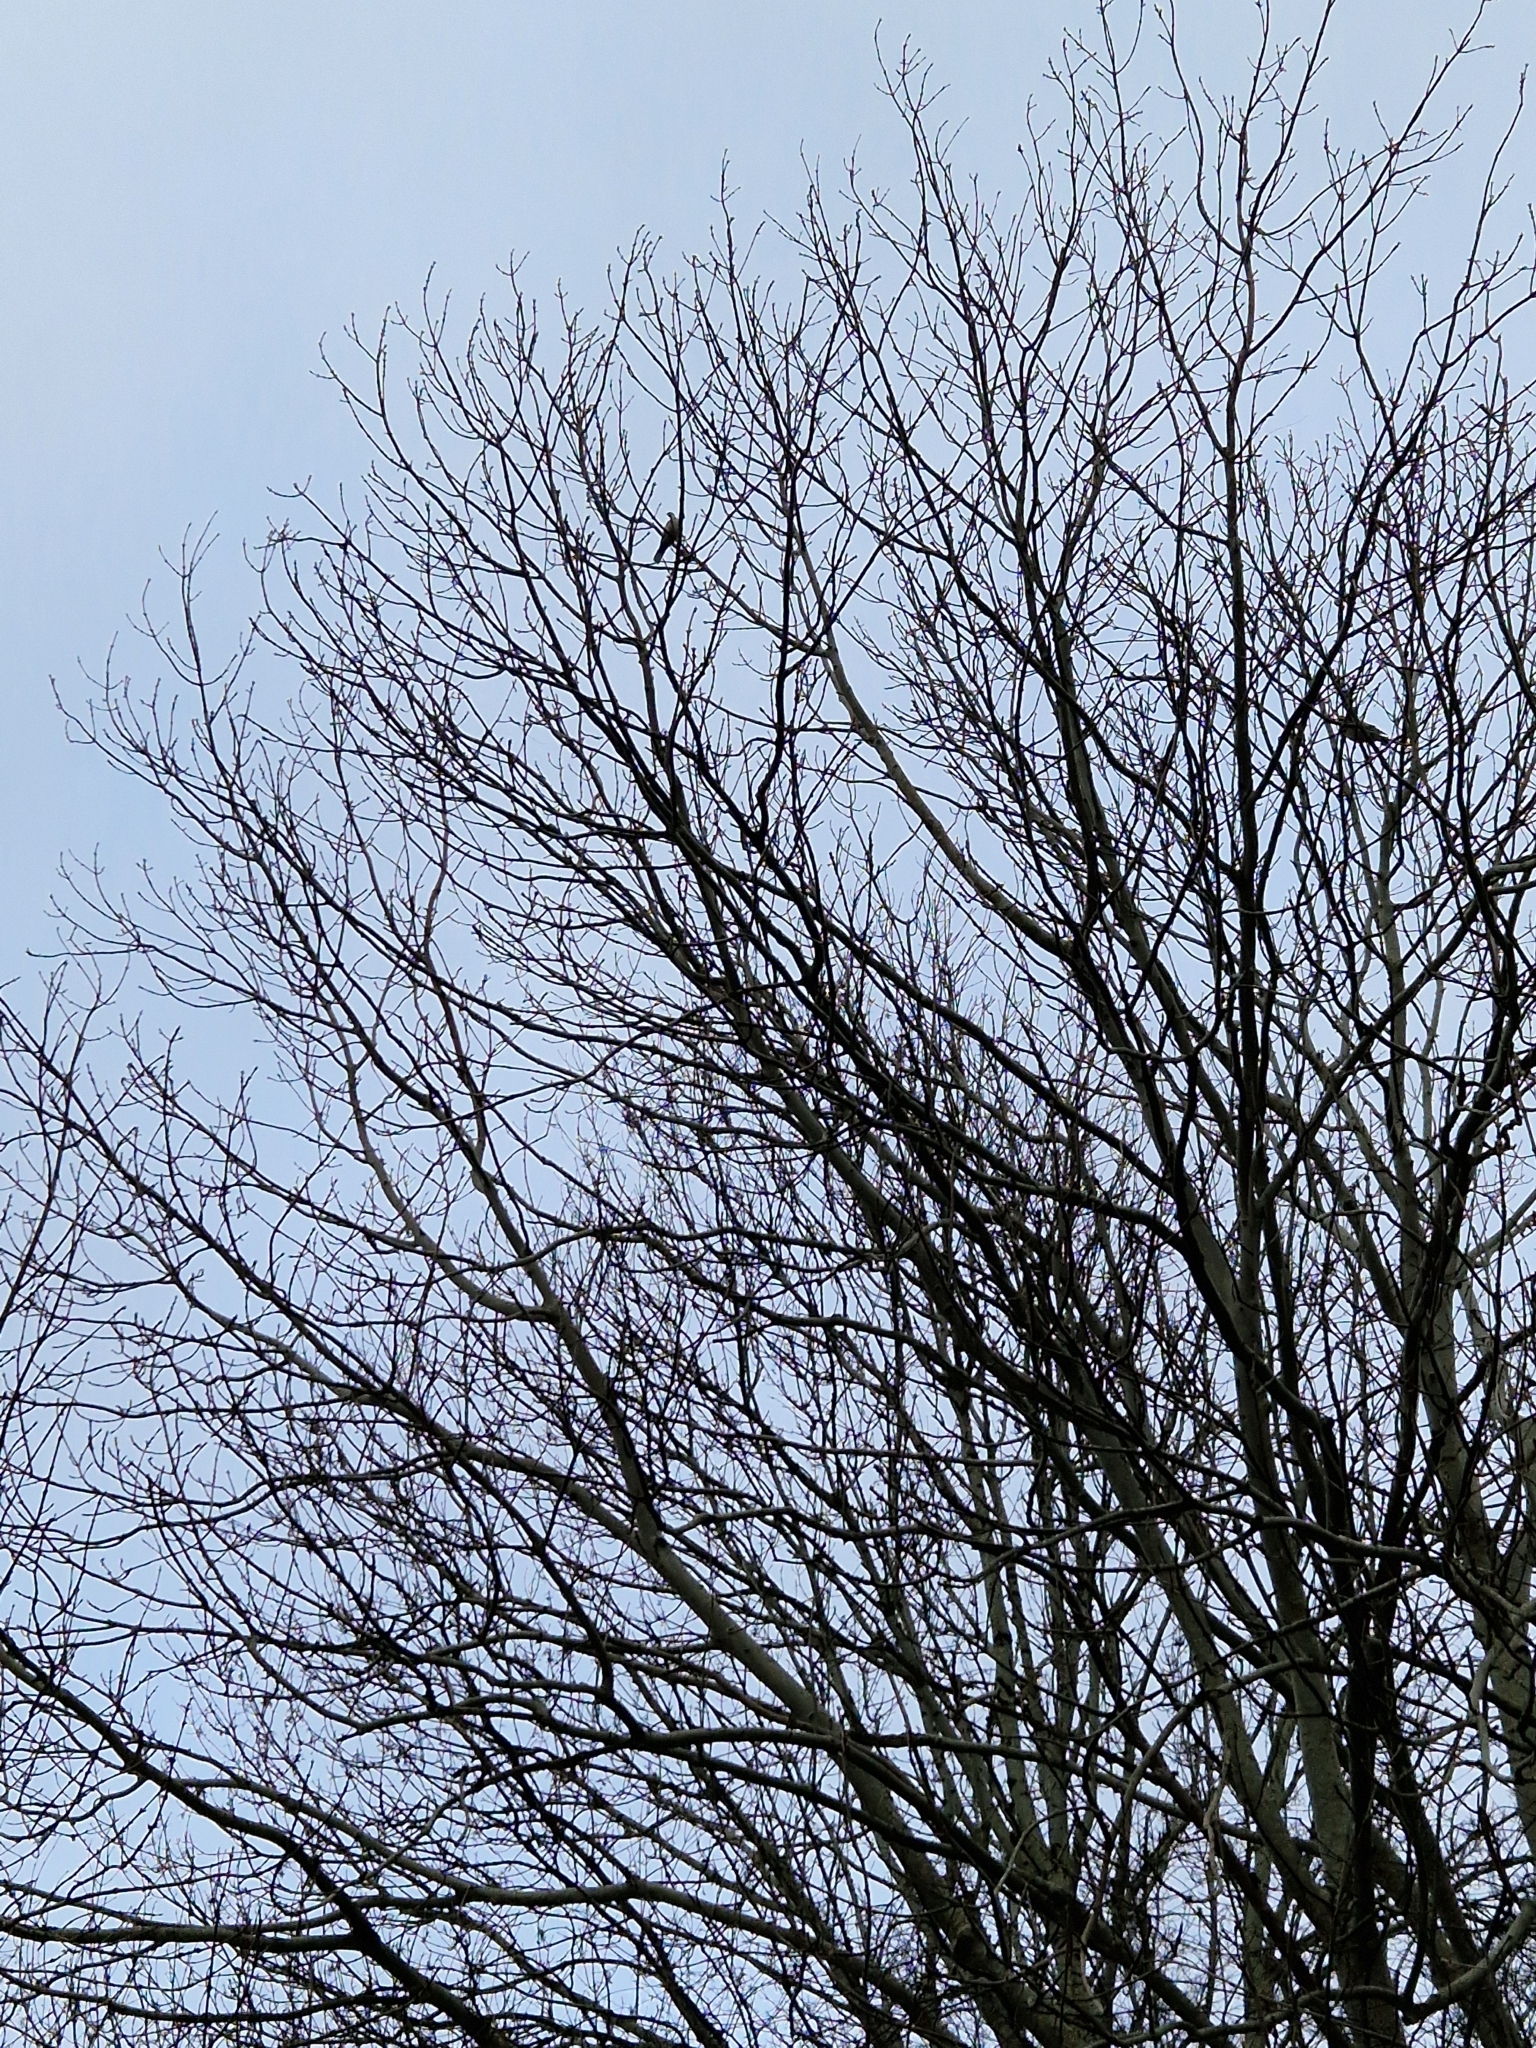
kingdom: Animalia
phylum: Chordata
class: Aves
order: Columbiformes
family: Columbidae
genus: Streptopelia
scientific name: Streptopelia decaocto
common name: Eurasian collared dove
